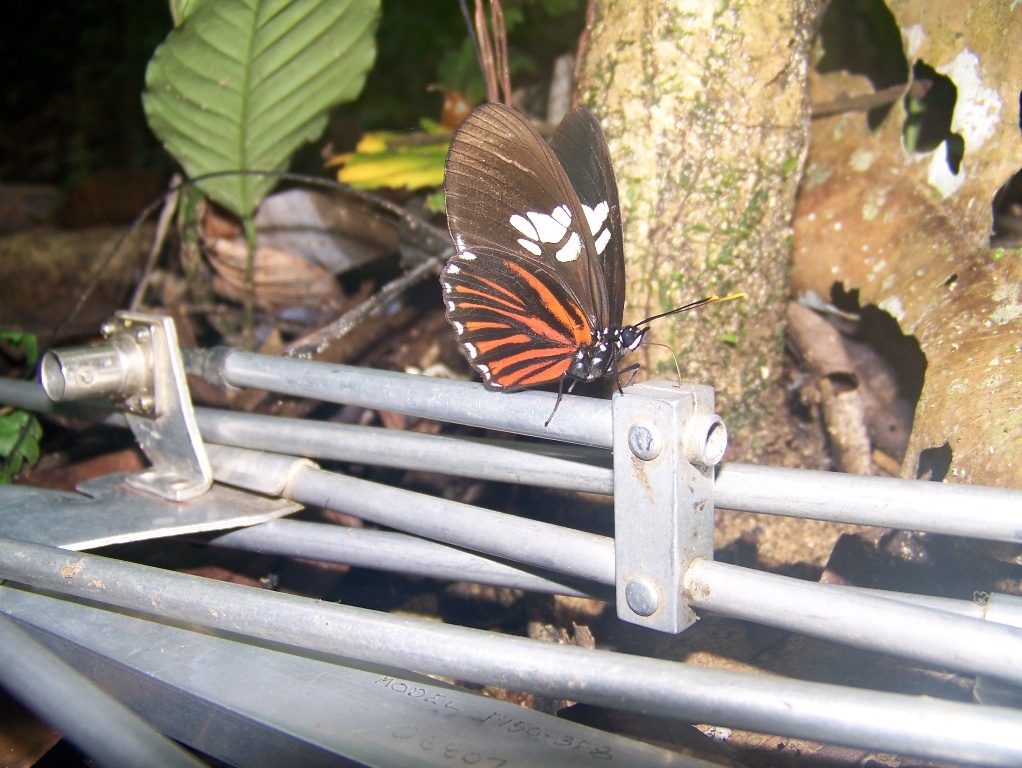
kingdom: Animalia
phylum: Arthropoda
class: Insecta
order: Lepidoptera
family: Nymphalidae
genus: Vila
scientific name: Vila eueidiformis
